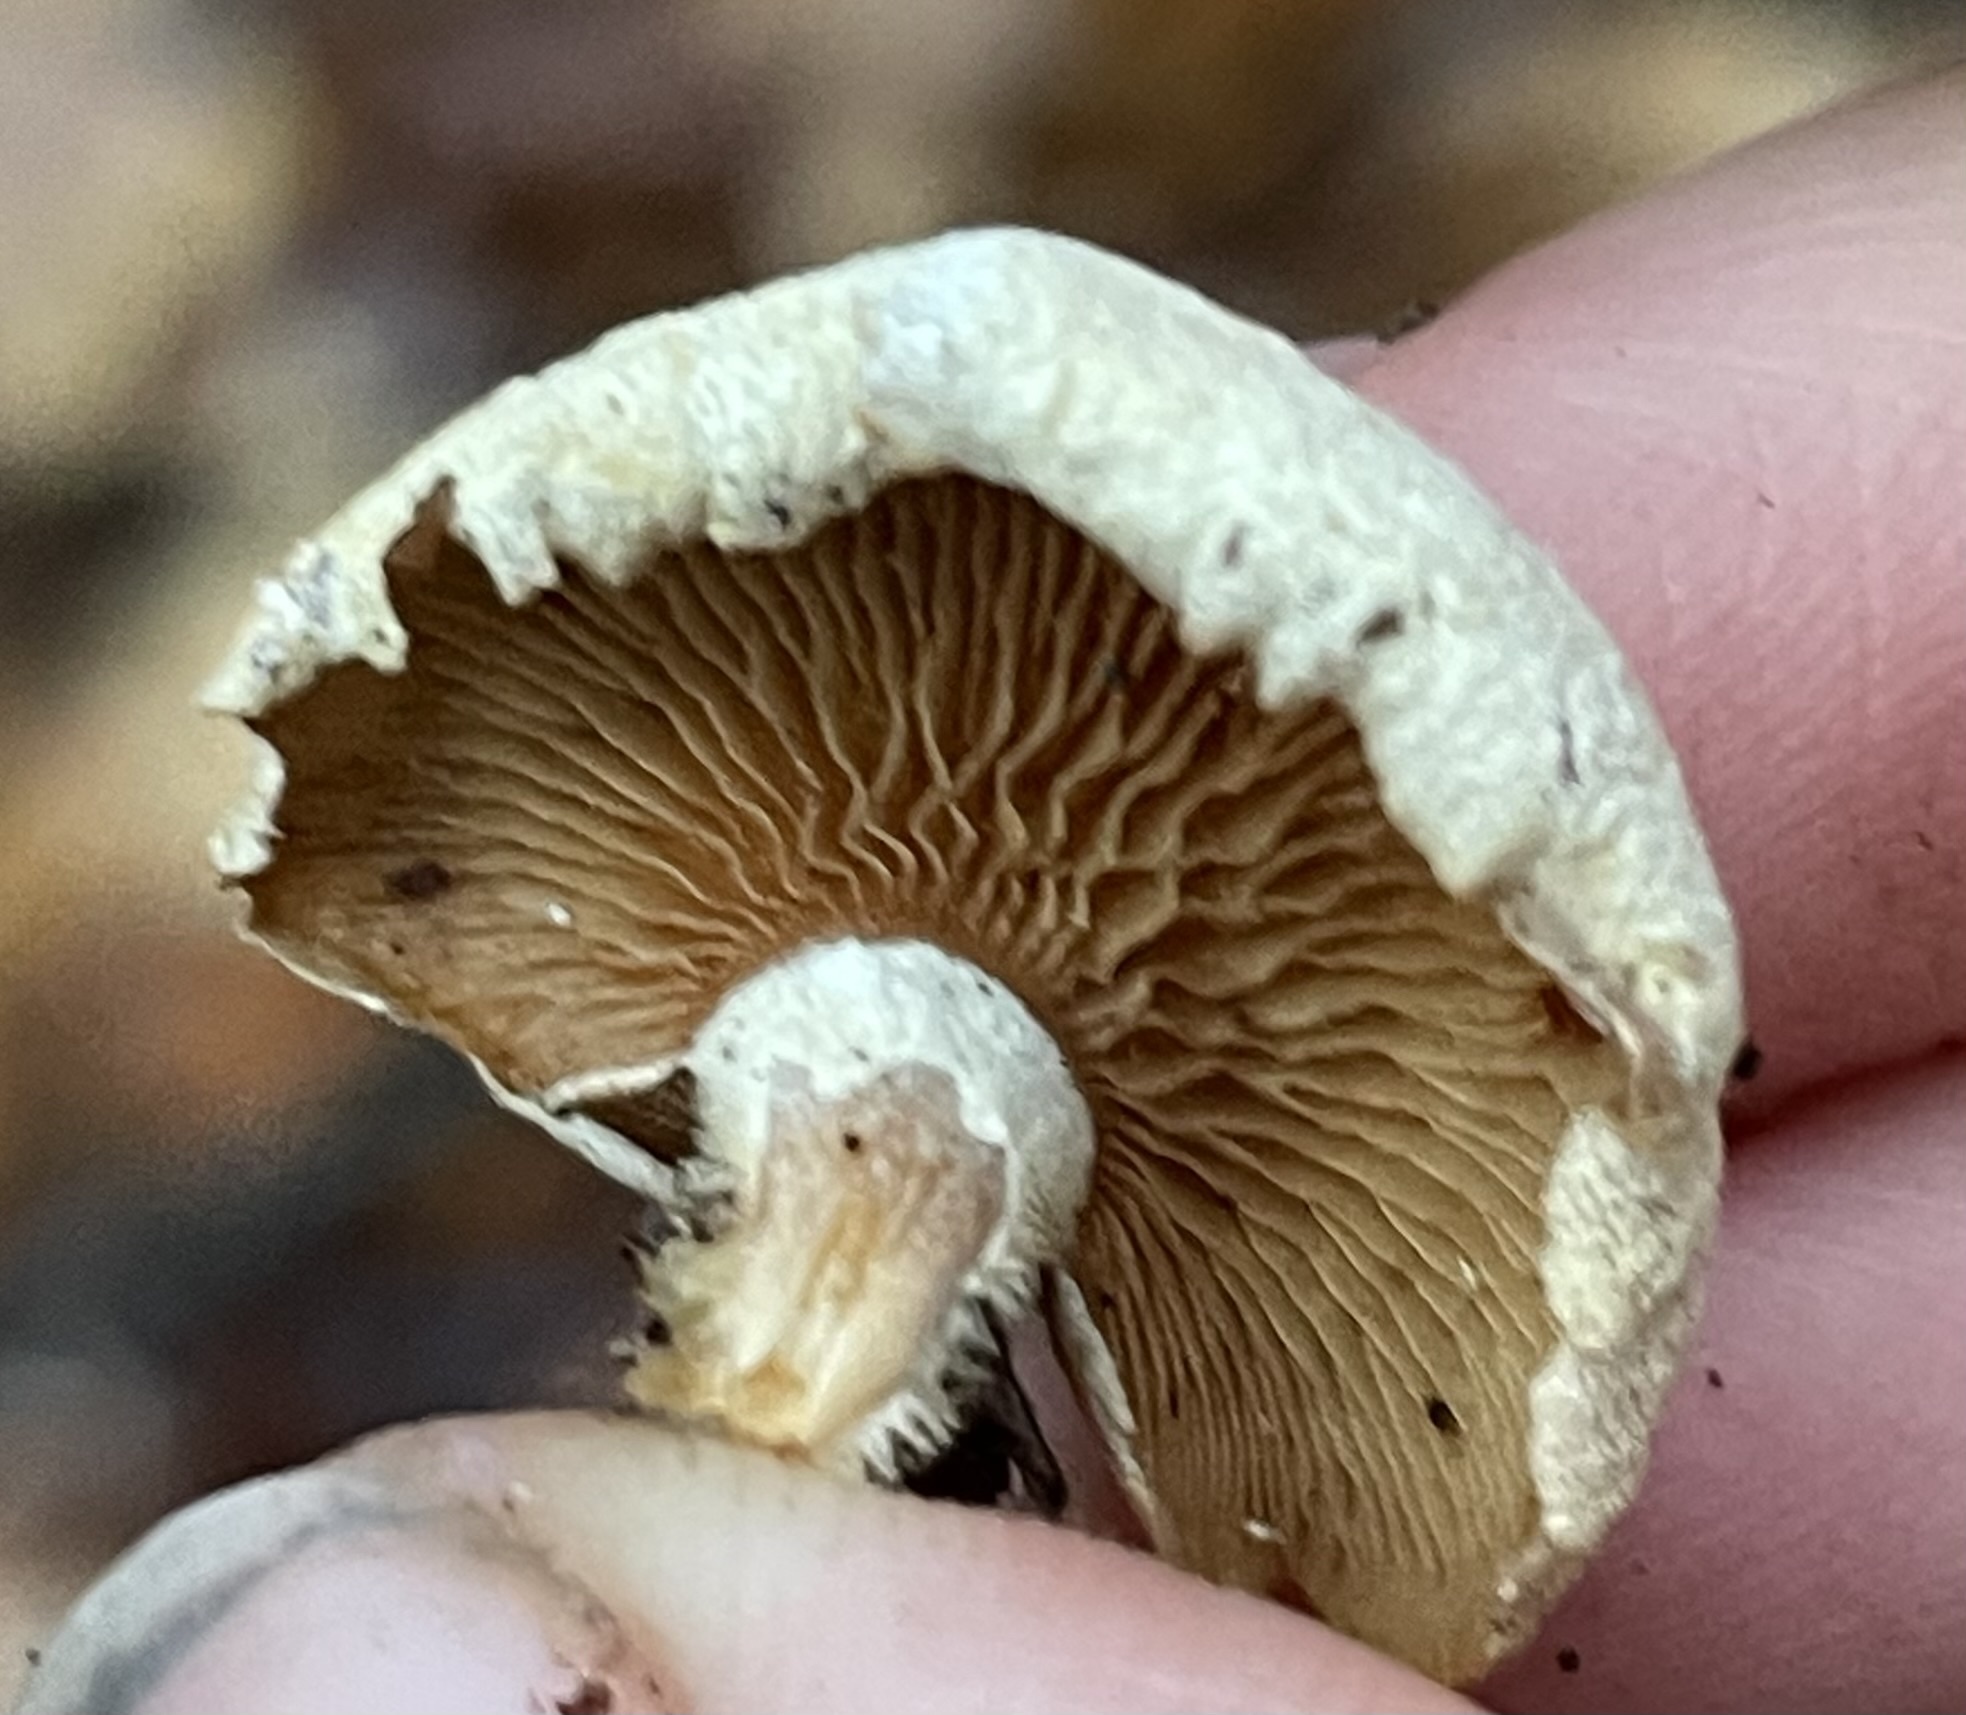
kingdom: Fungi
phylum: Basidiomycota
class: Agaricomycetes
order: Agaricales
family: Mycenaceae
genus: Panellus
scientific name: Panellus stipticus
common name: Bitter oysterling
